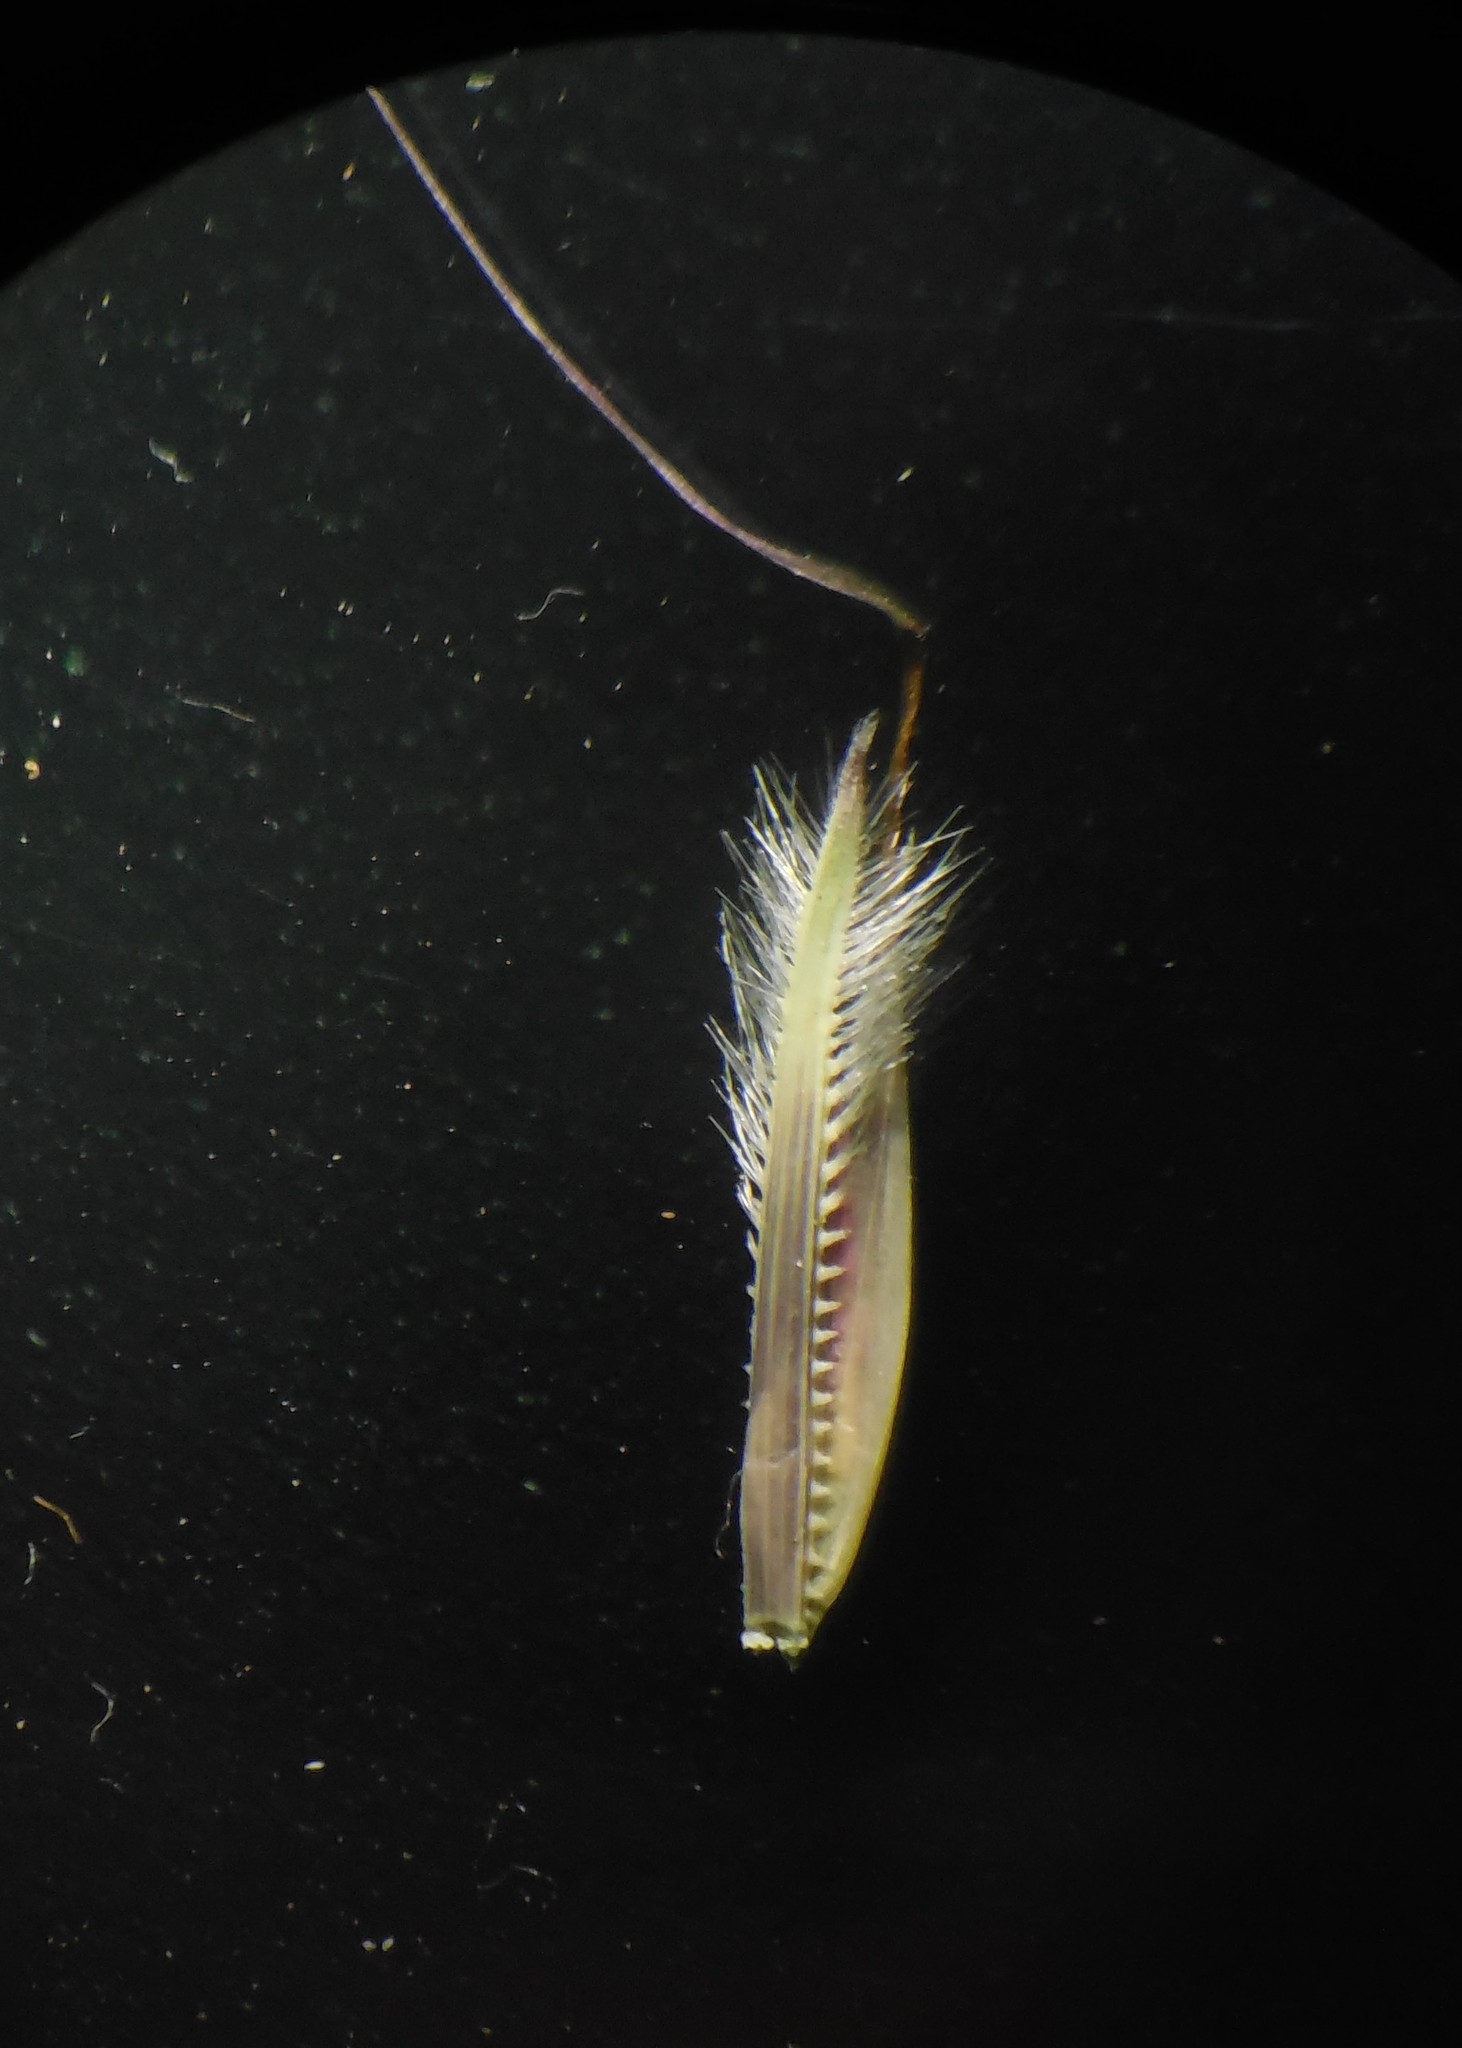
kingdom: Plantae
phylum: Tracheophyta
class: Liliopsida
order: Poales
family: Poaceae
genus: Arthraxon
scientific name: Arthraxon lanceolatus
